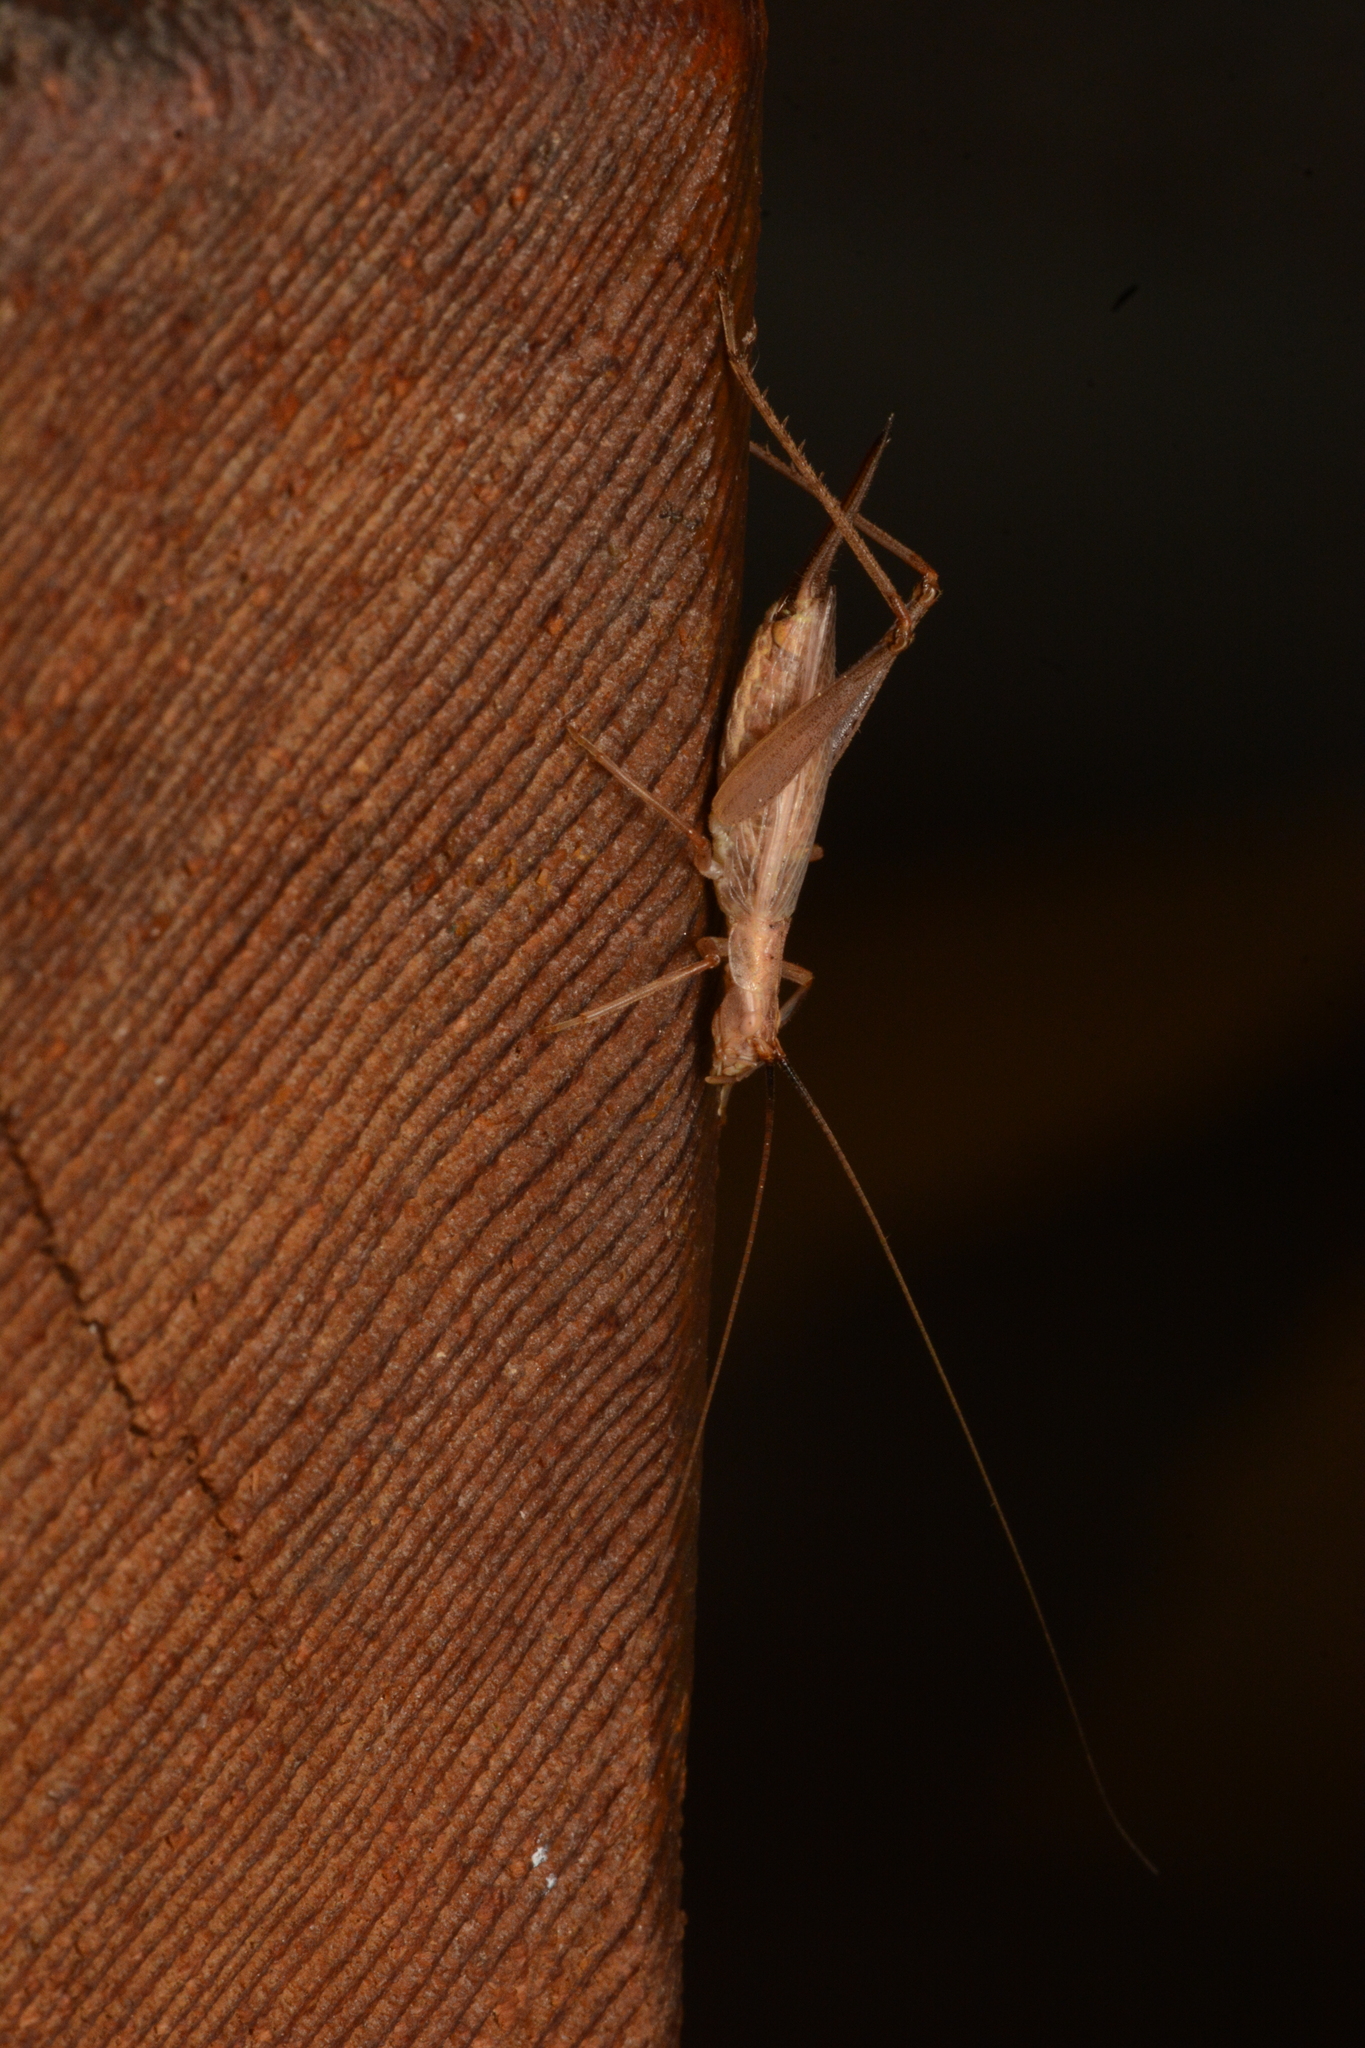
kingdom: Animalia
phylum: Arthropoda
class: Insecta
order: Orthoptera
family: Gryllidae
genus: Oecanthus
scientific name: Oecanthus californicus
